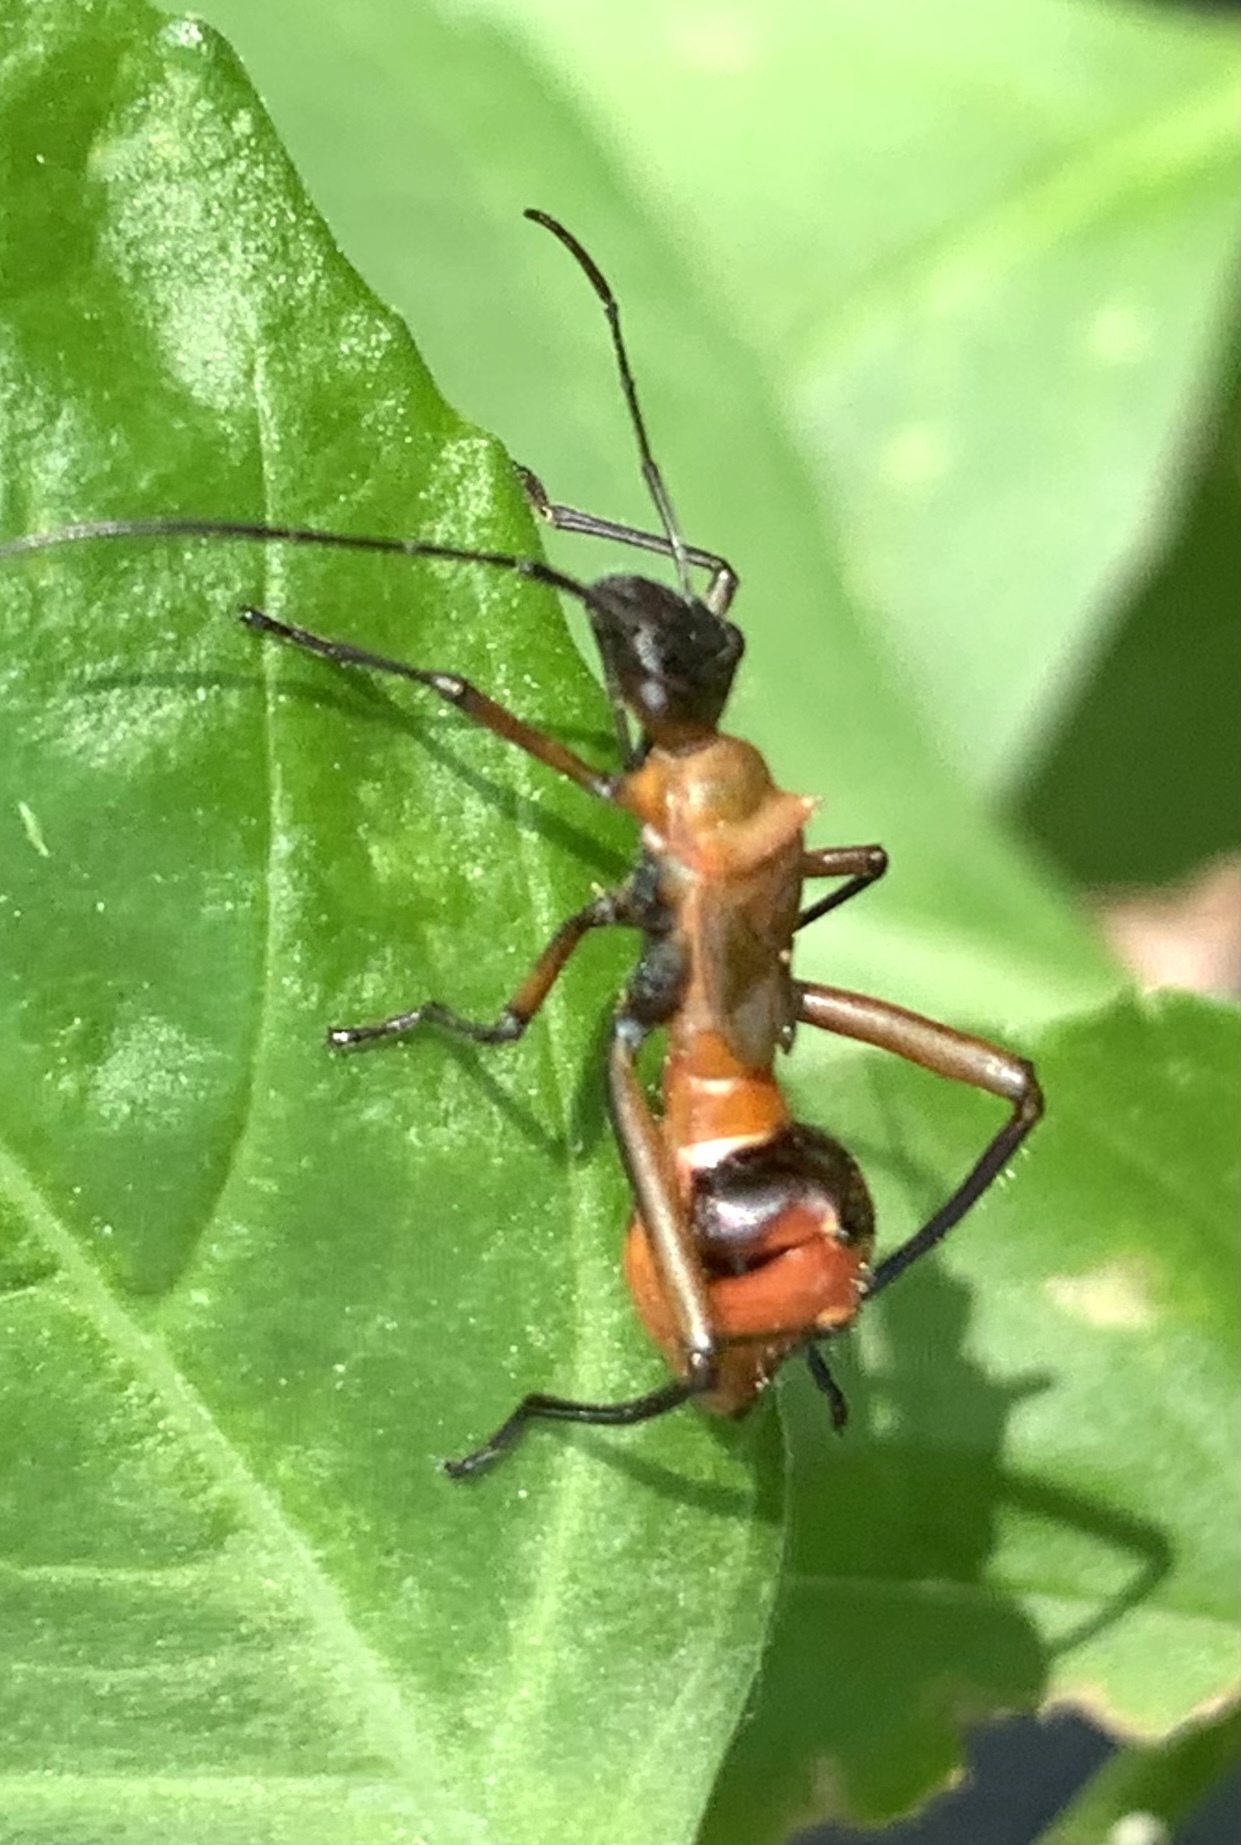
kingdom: Animalia
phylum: Arthropoda
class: Insecta
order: Hemiptera
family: Alydidae
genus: Hyalymenus
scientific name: Hyalymenus tarsatus
